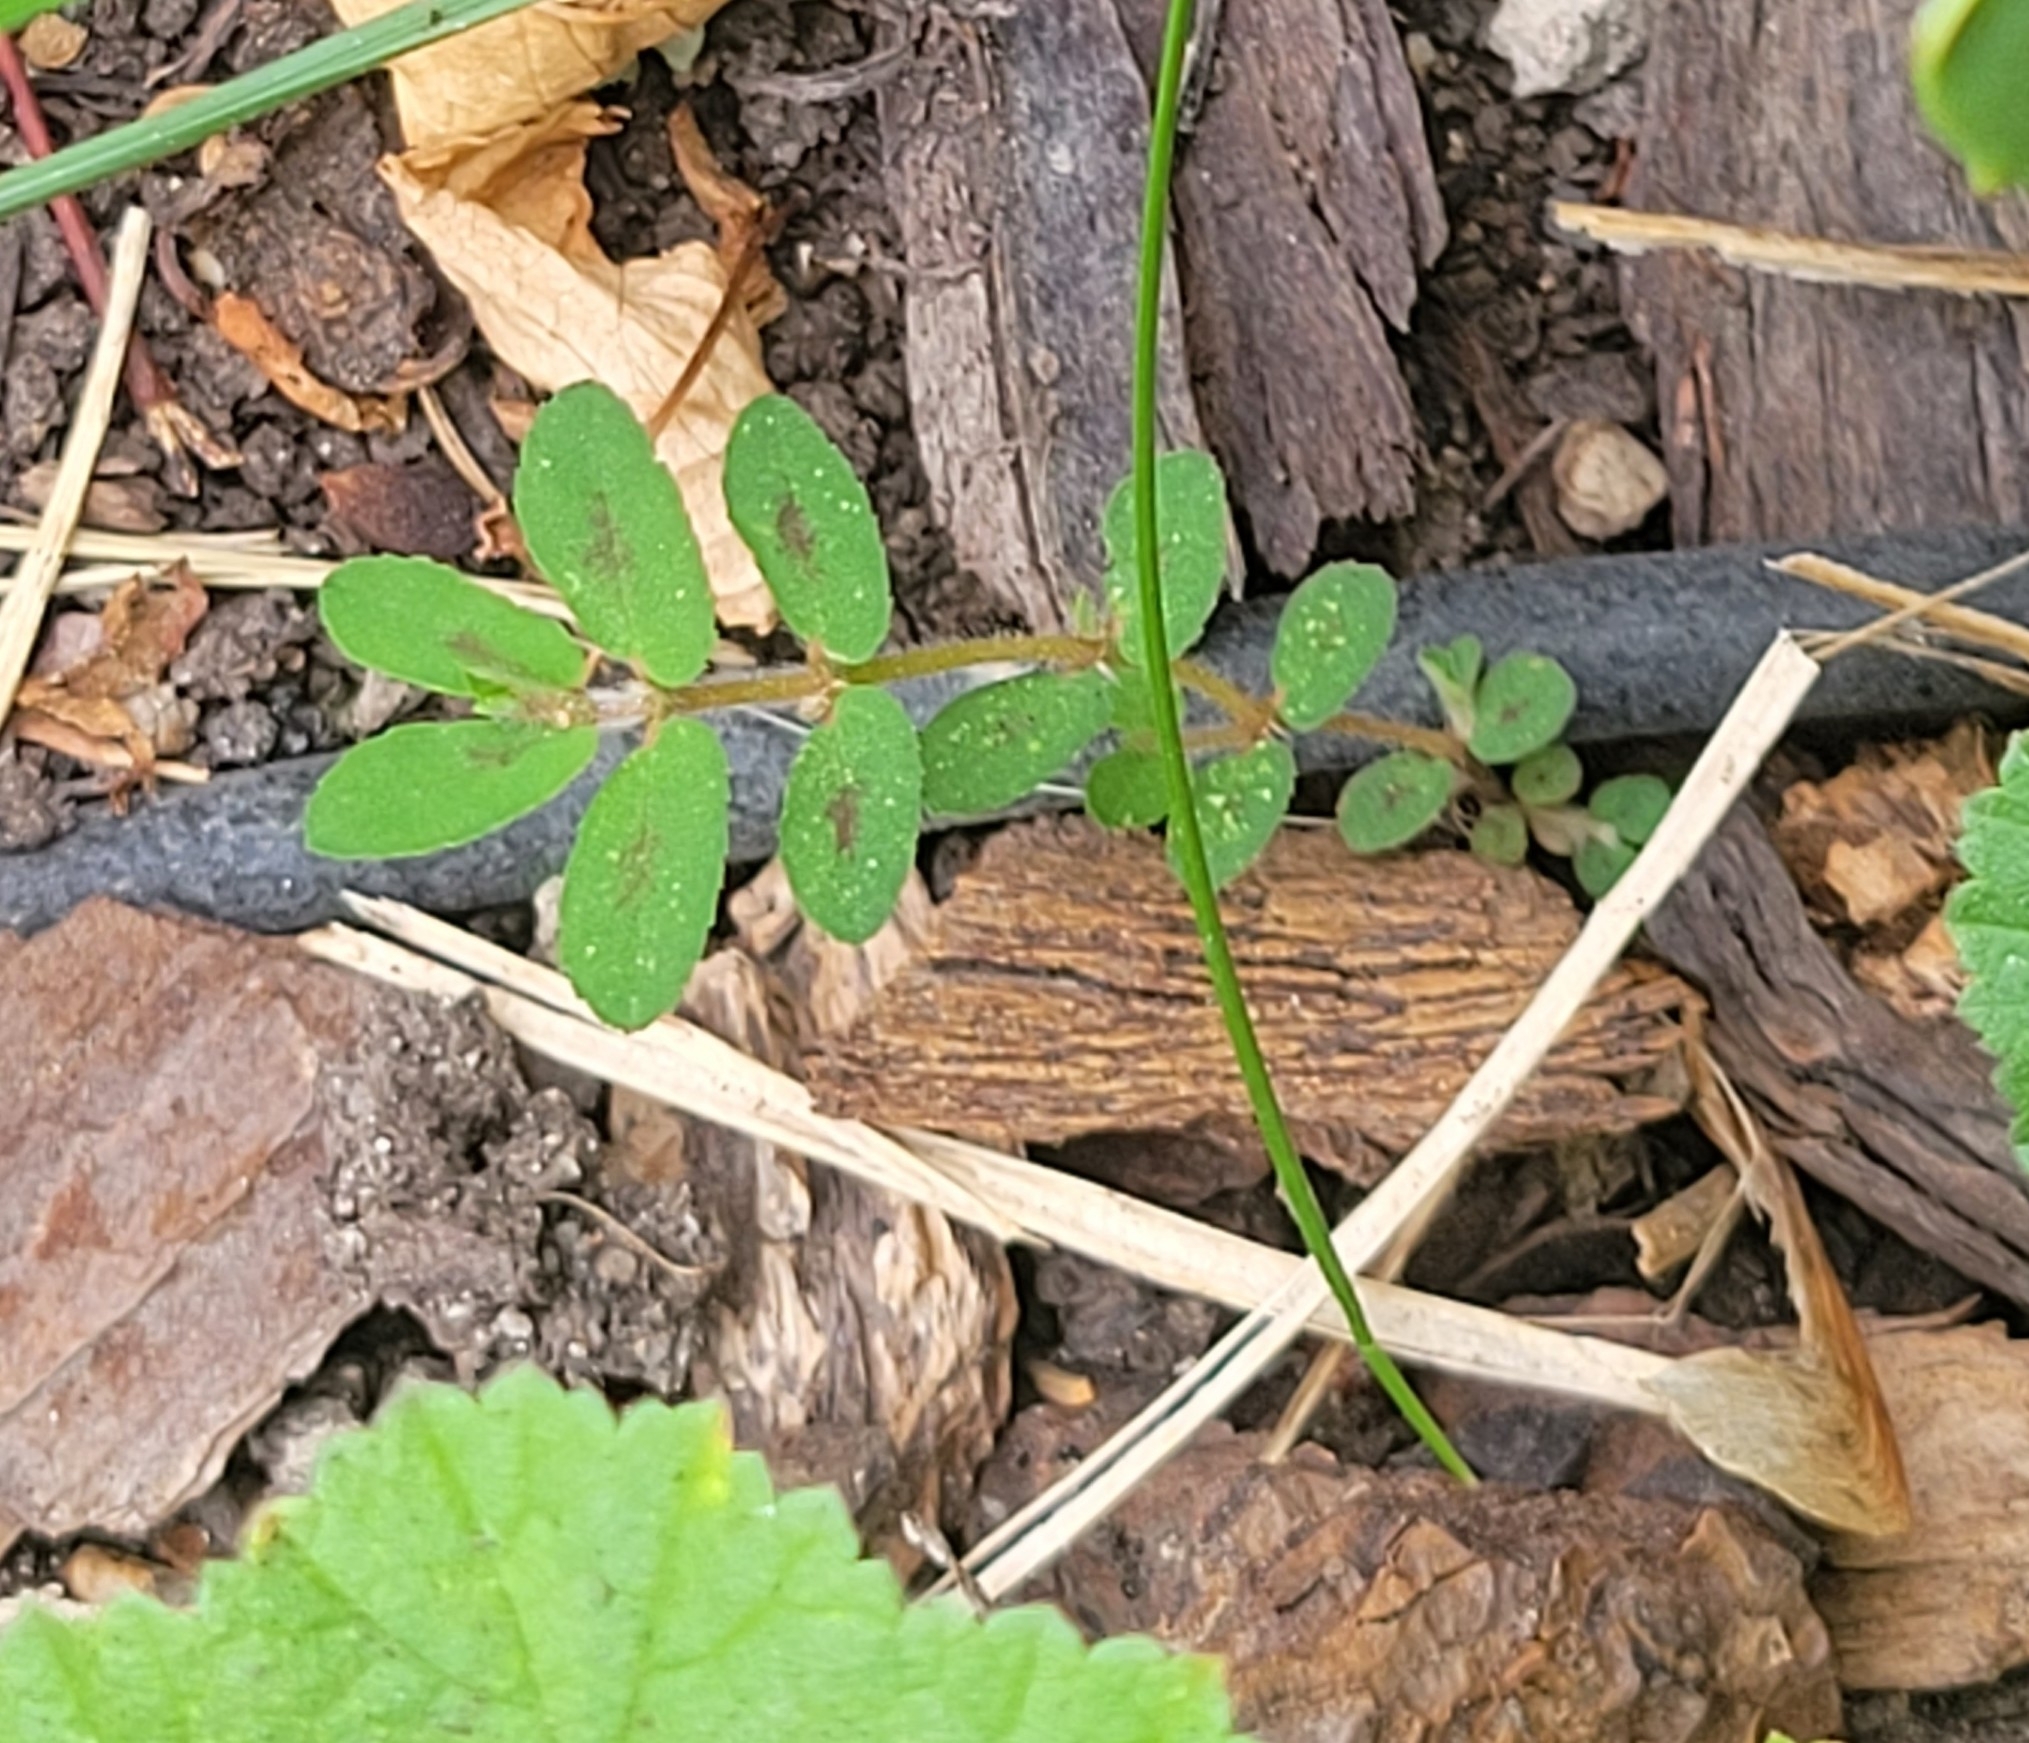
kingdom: Plantae
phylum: Tracheophyta
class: Magnoliopsida
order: Malpighiales
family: Euphorbiaceae
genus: Euphorbia
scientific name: Euphorbia maculata
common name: Spotted spurge
